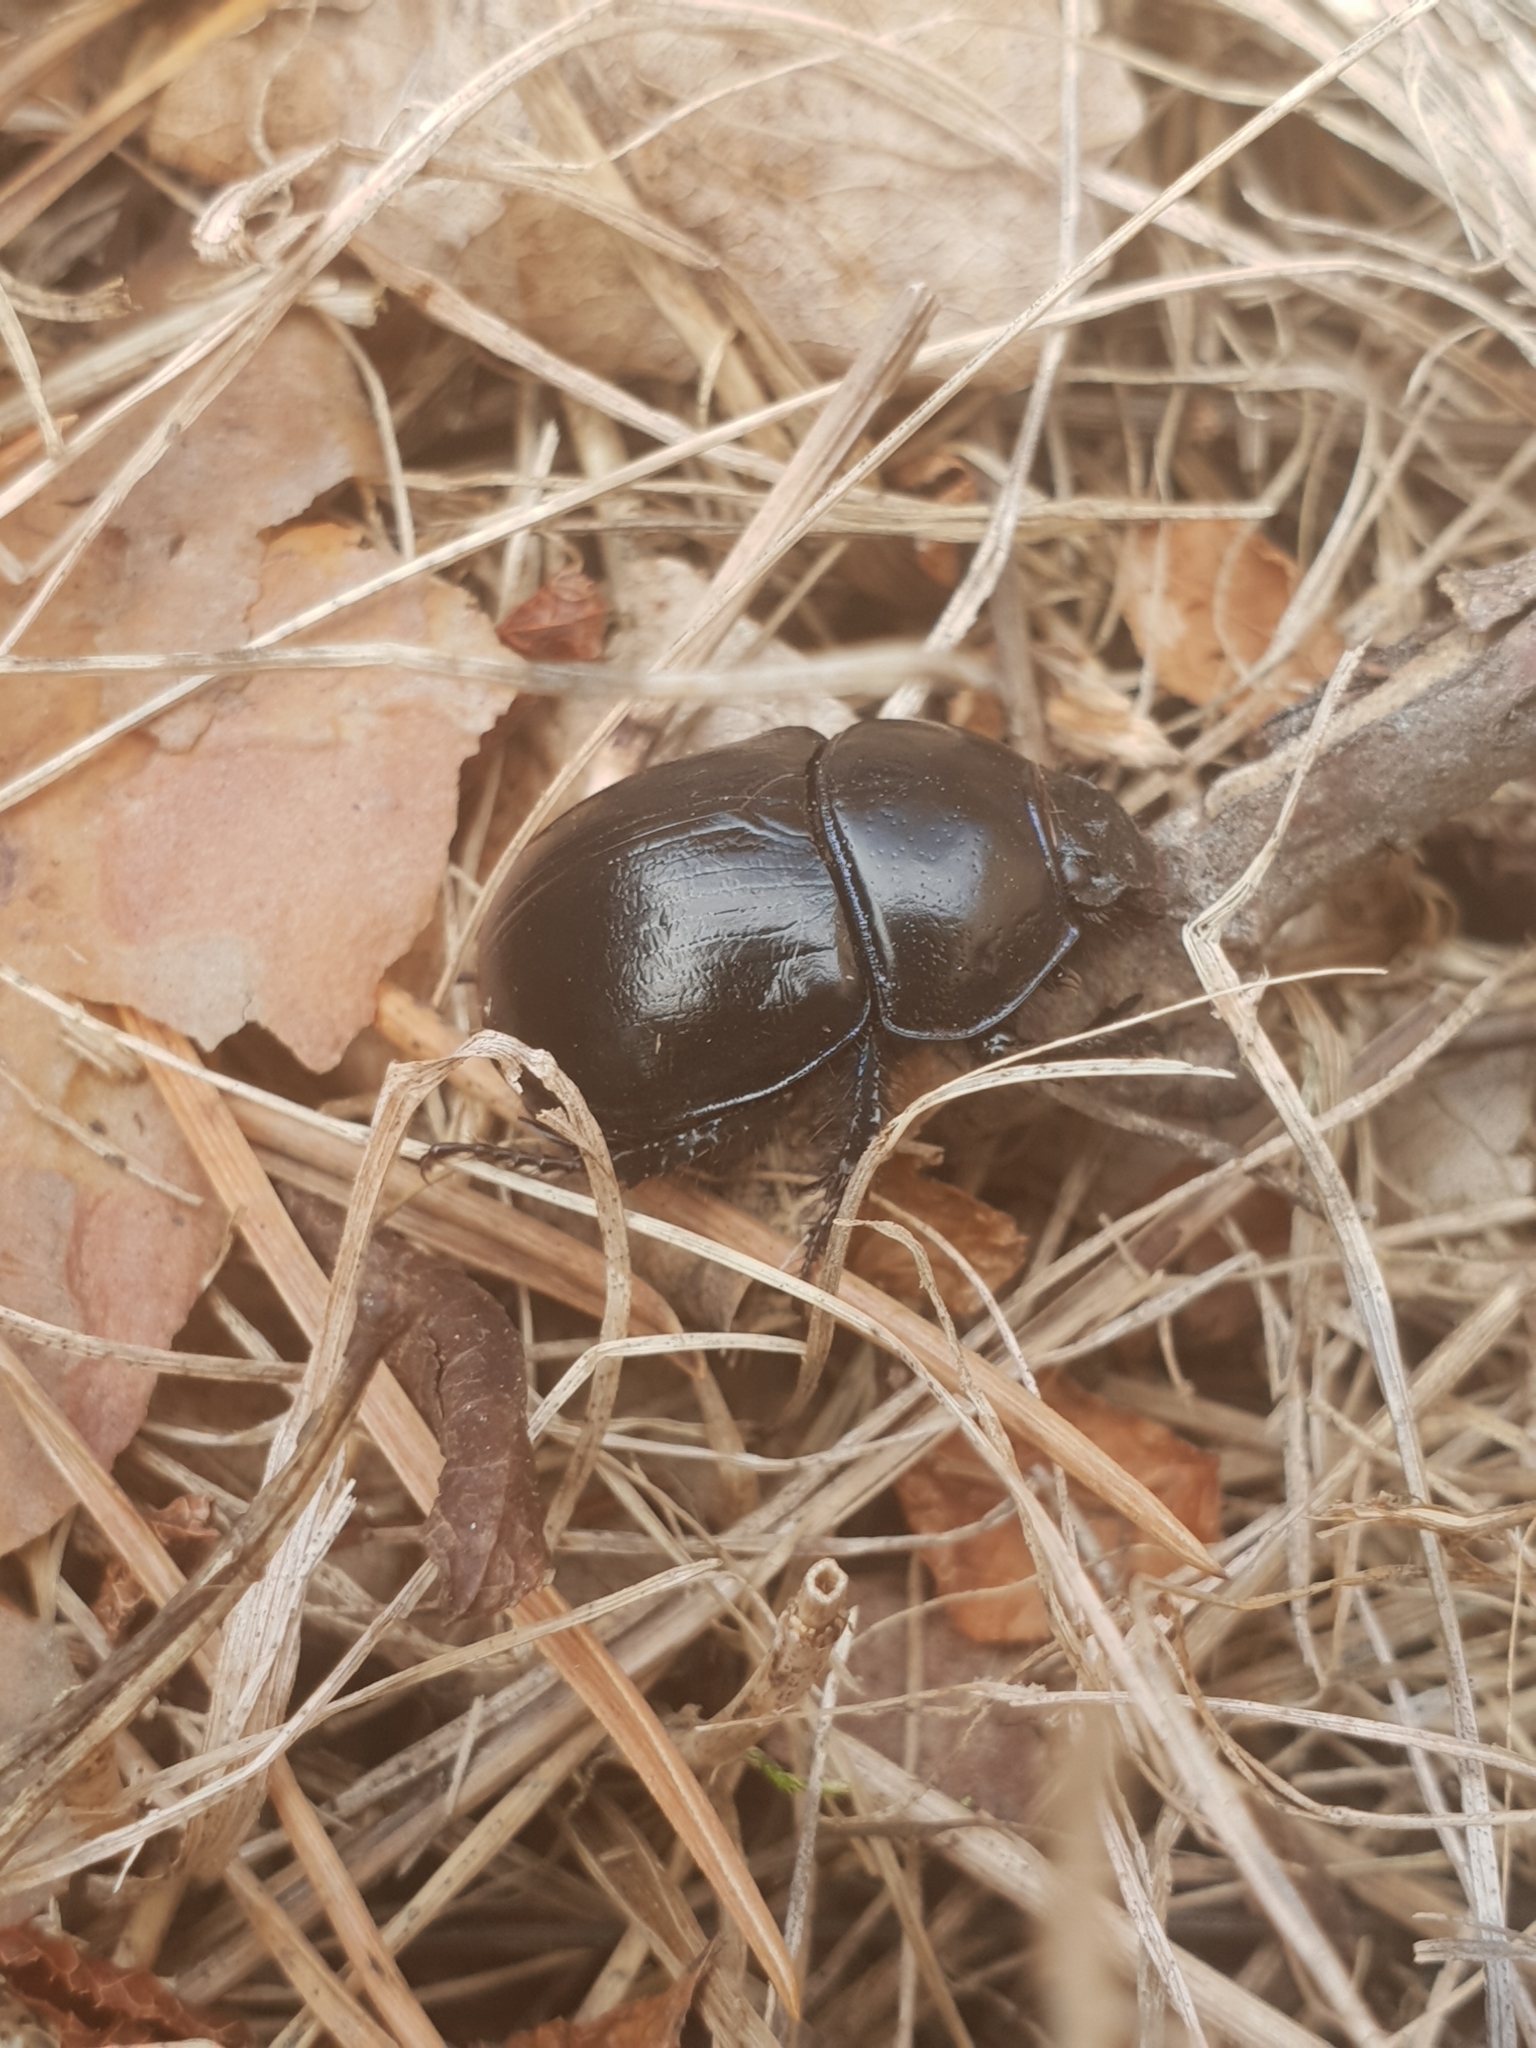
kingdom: Animalia
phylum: Arthropoda
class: Insecta
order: Coleoptera
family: Geotrupidae
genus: Anoplotrupes
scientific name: Anoplotrupes stercorosus
